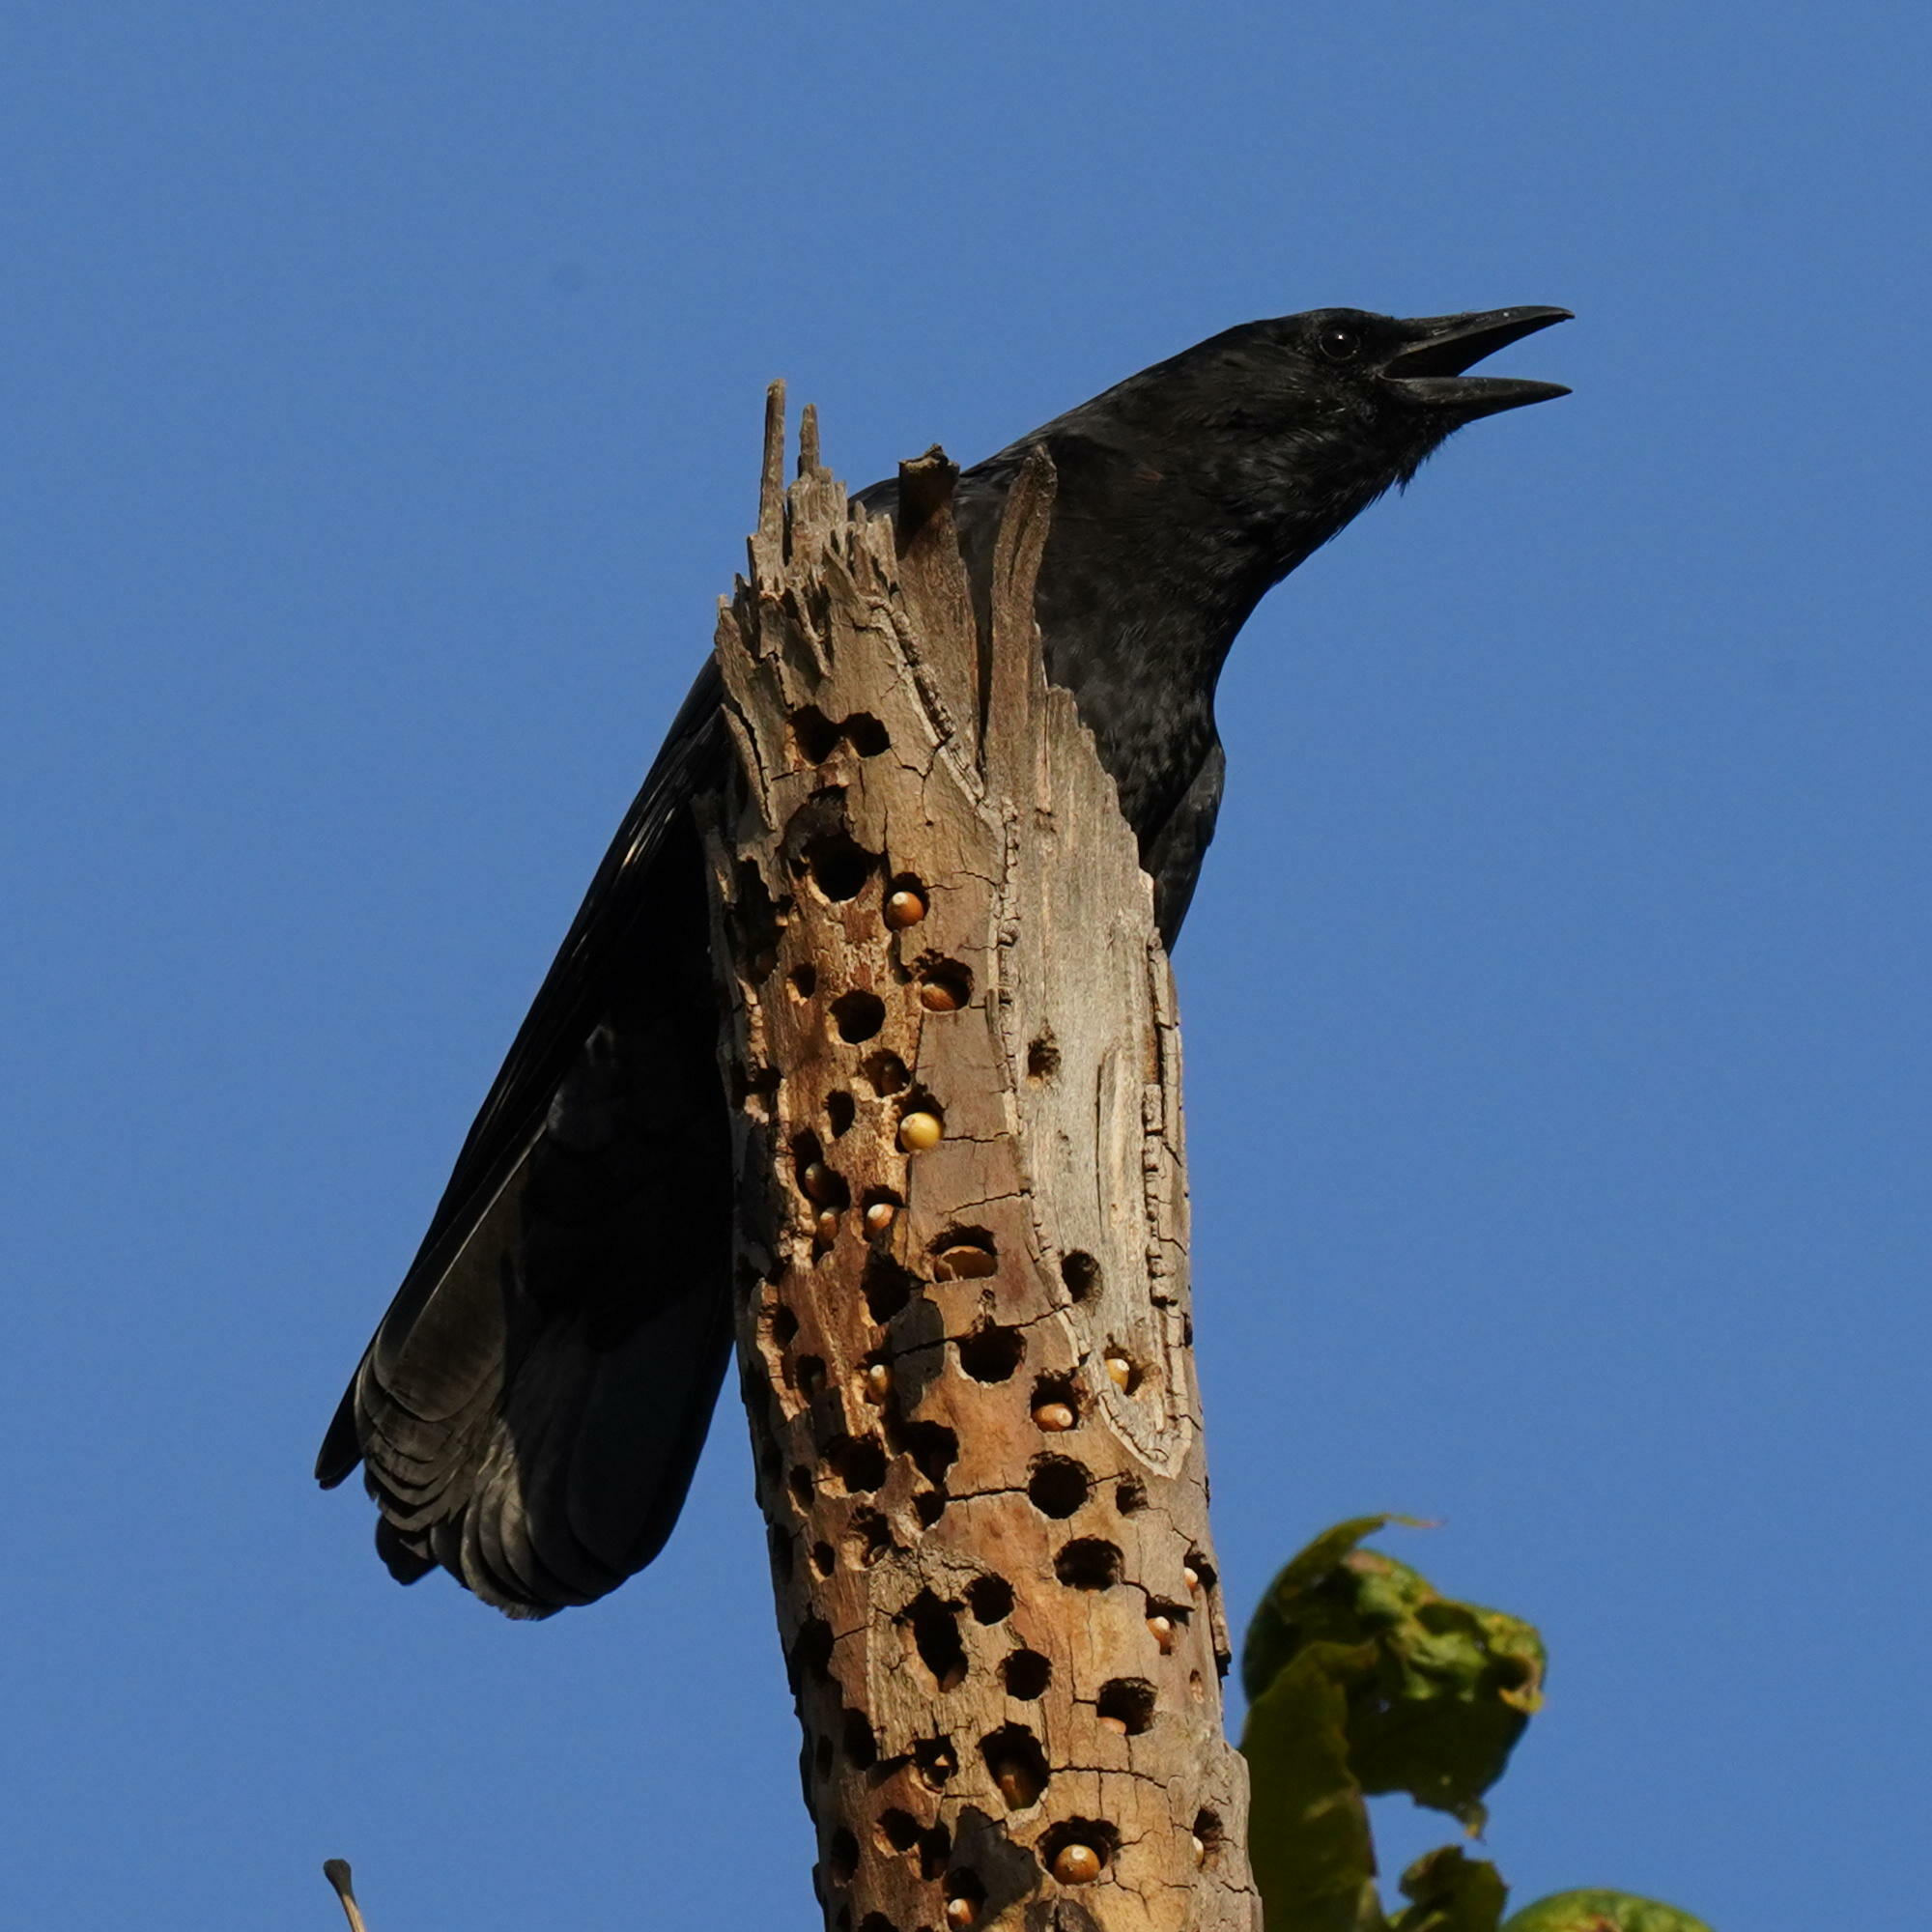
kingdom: Animalia
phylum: Chordata
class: Aves
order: Passeriformes
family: Corvidae
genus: Corvus
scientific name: Corvus brachyrhynchos
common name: American crow
